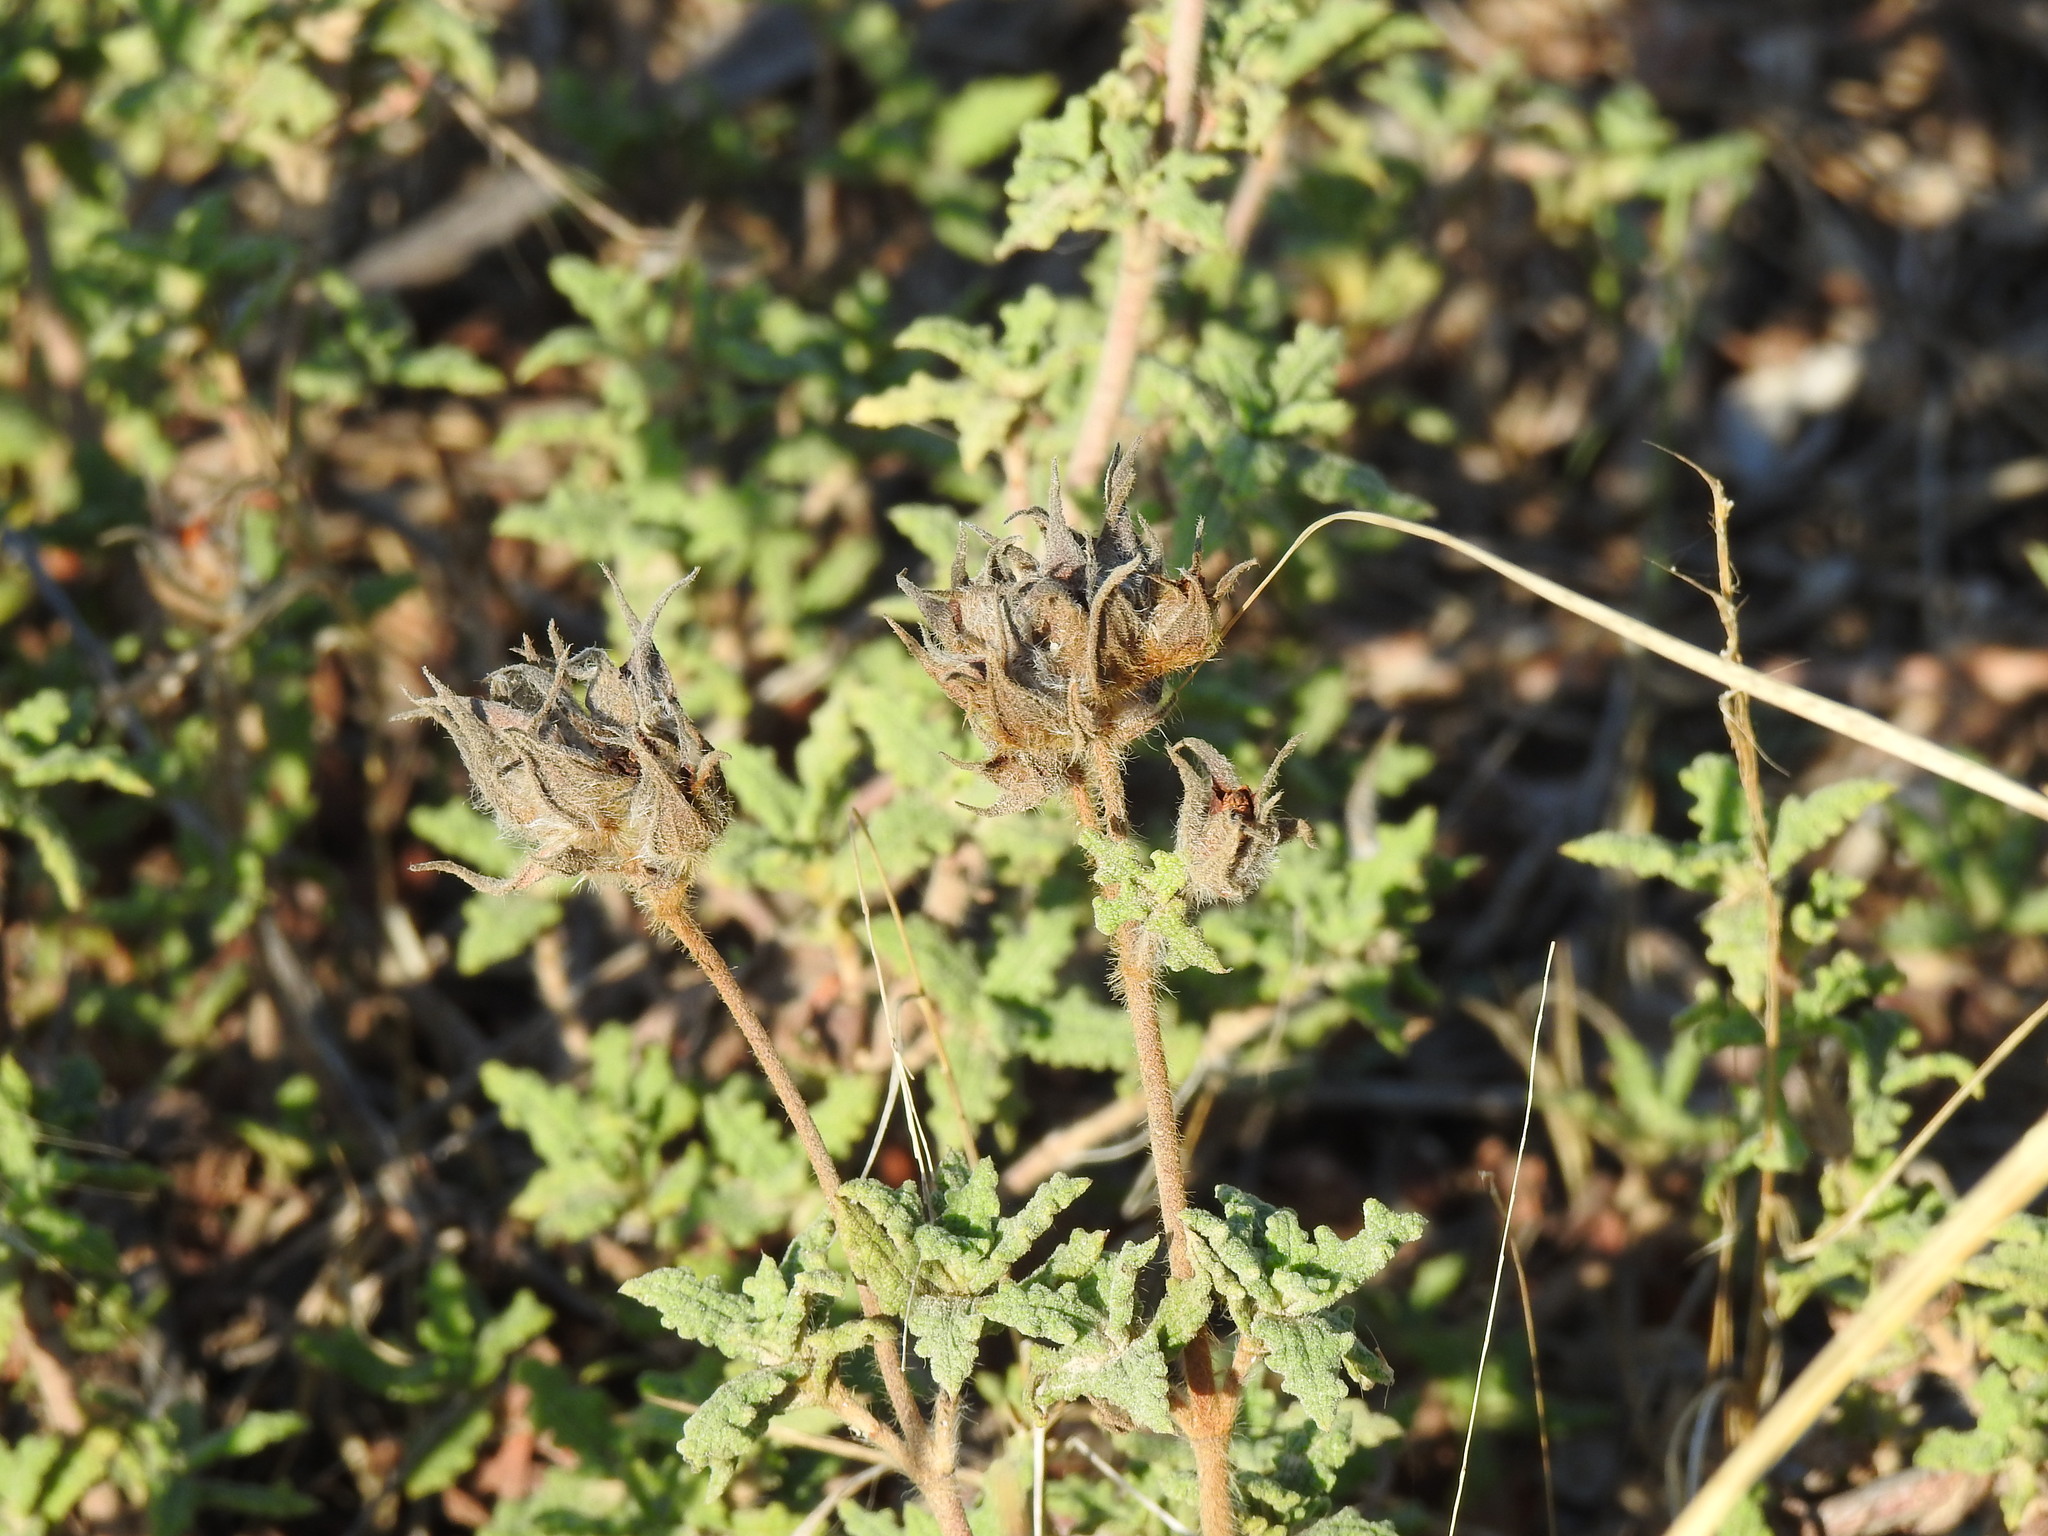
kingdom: Plantae
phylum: Tracheophyta
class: Magnoliopsida
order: Malvales
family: Cistaceae
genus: Cistus
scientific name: Cistus crispus
